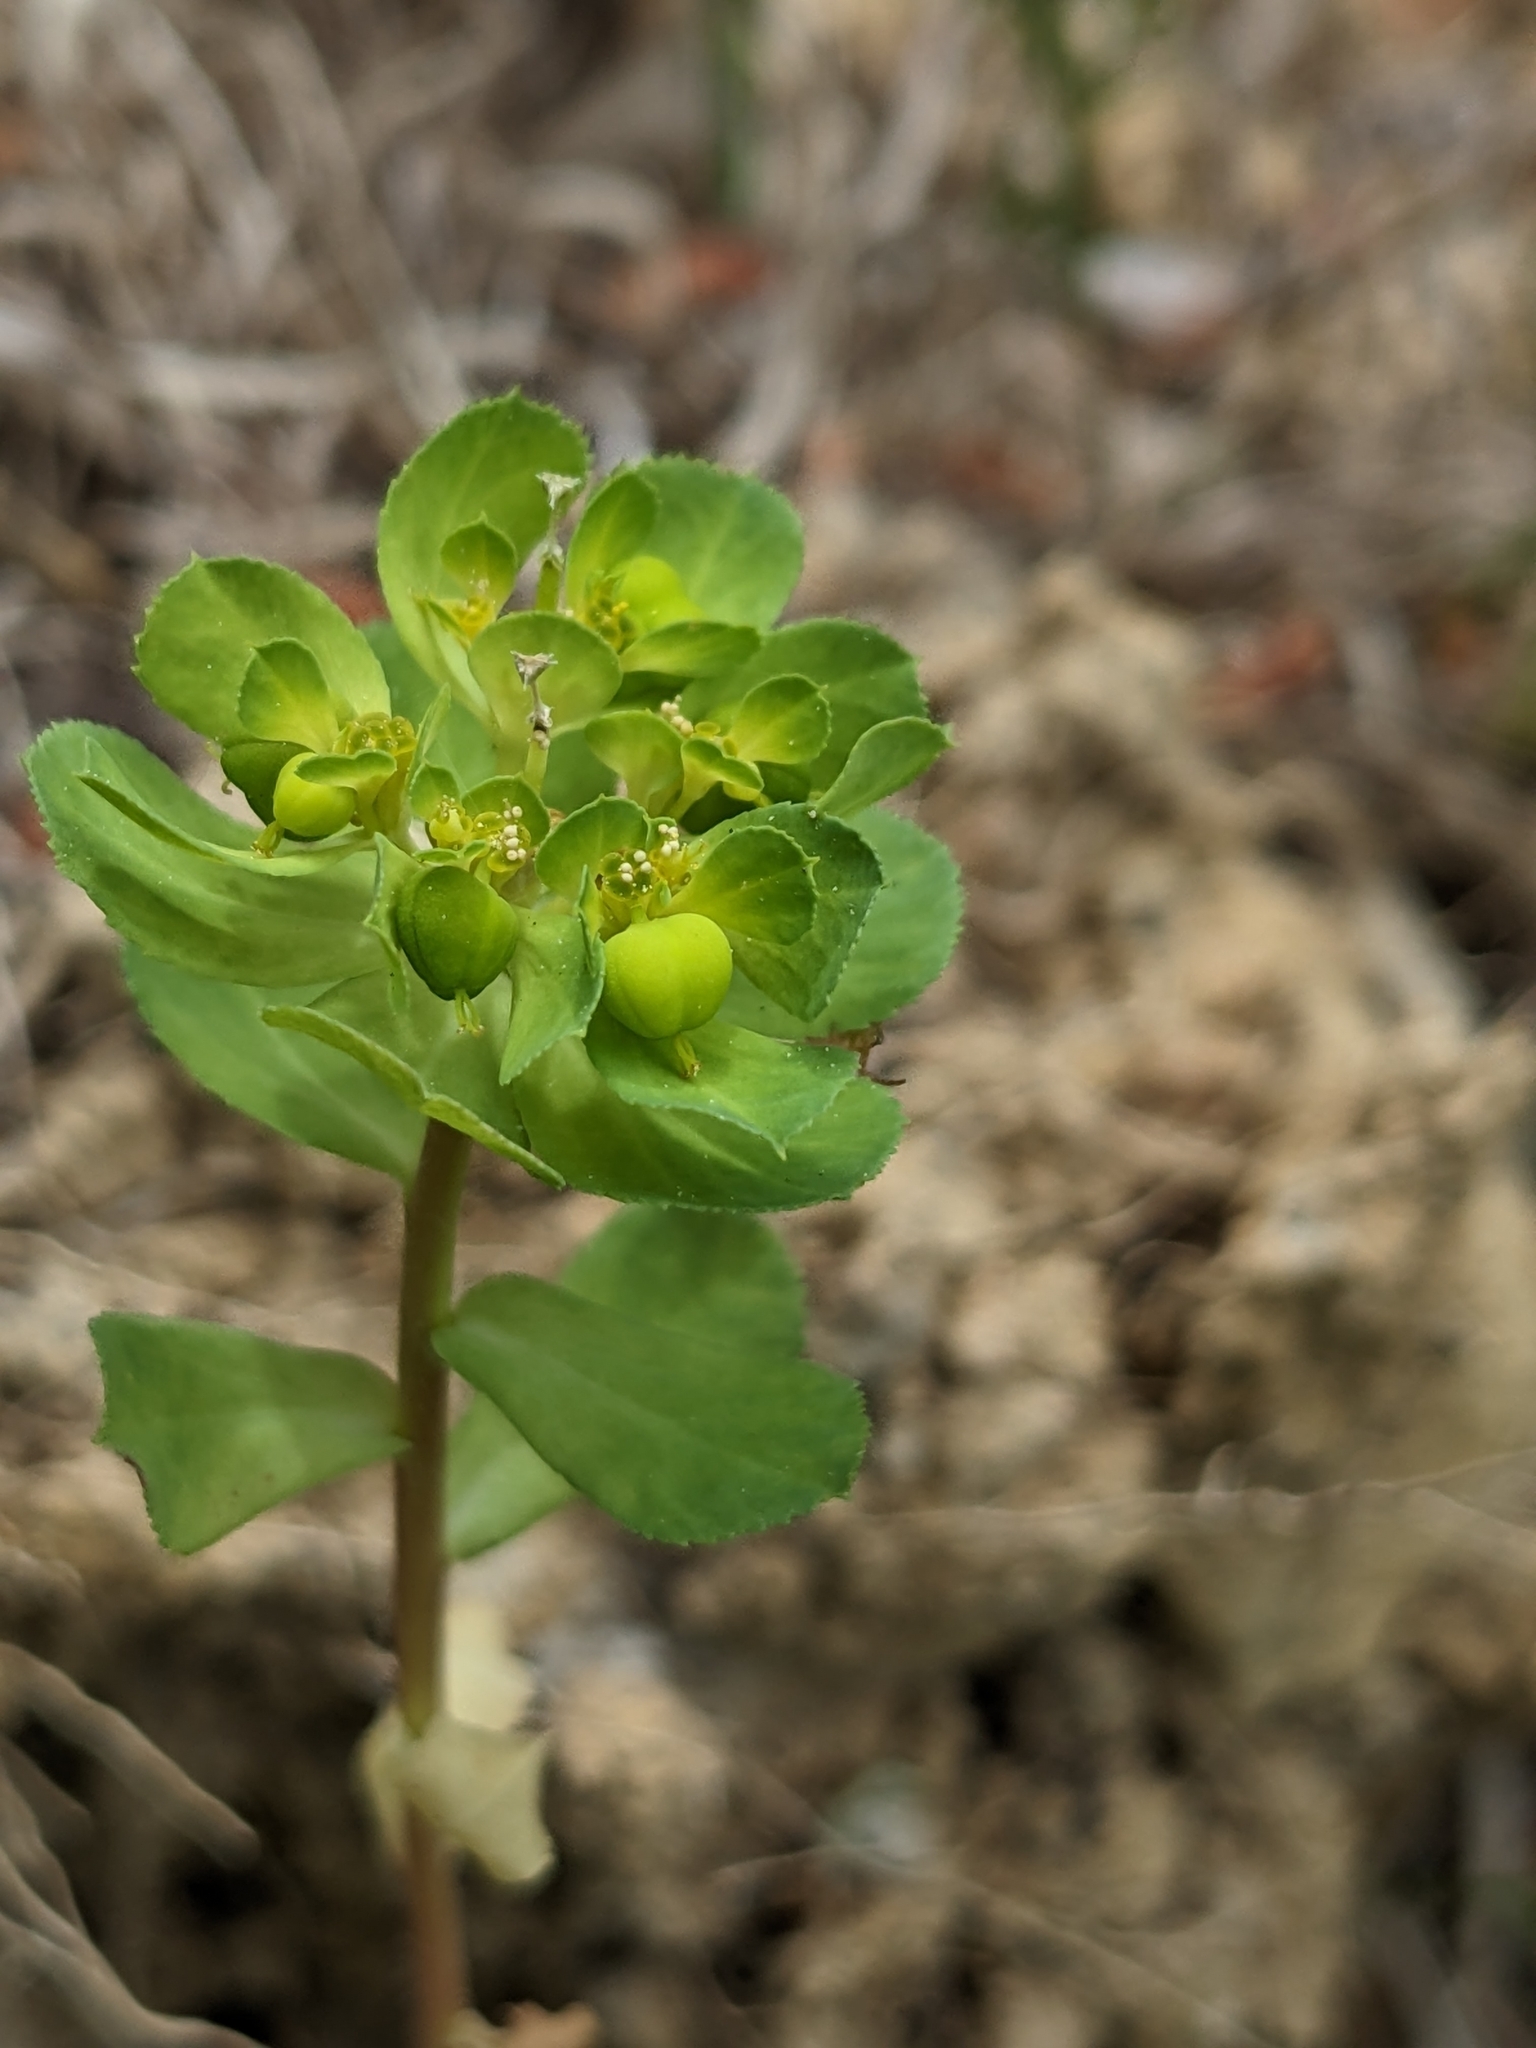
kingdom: Plantae
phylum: Tracheophyta
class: Magnoliopsida
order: Malpighiales
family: Euphorbiaceae
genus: Euphorbia
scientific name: Euphorbia helioscopia
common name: Sun spurge
